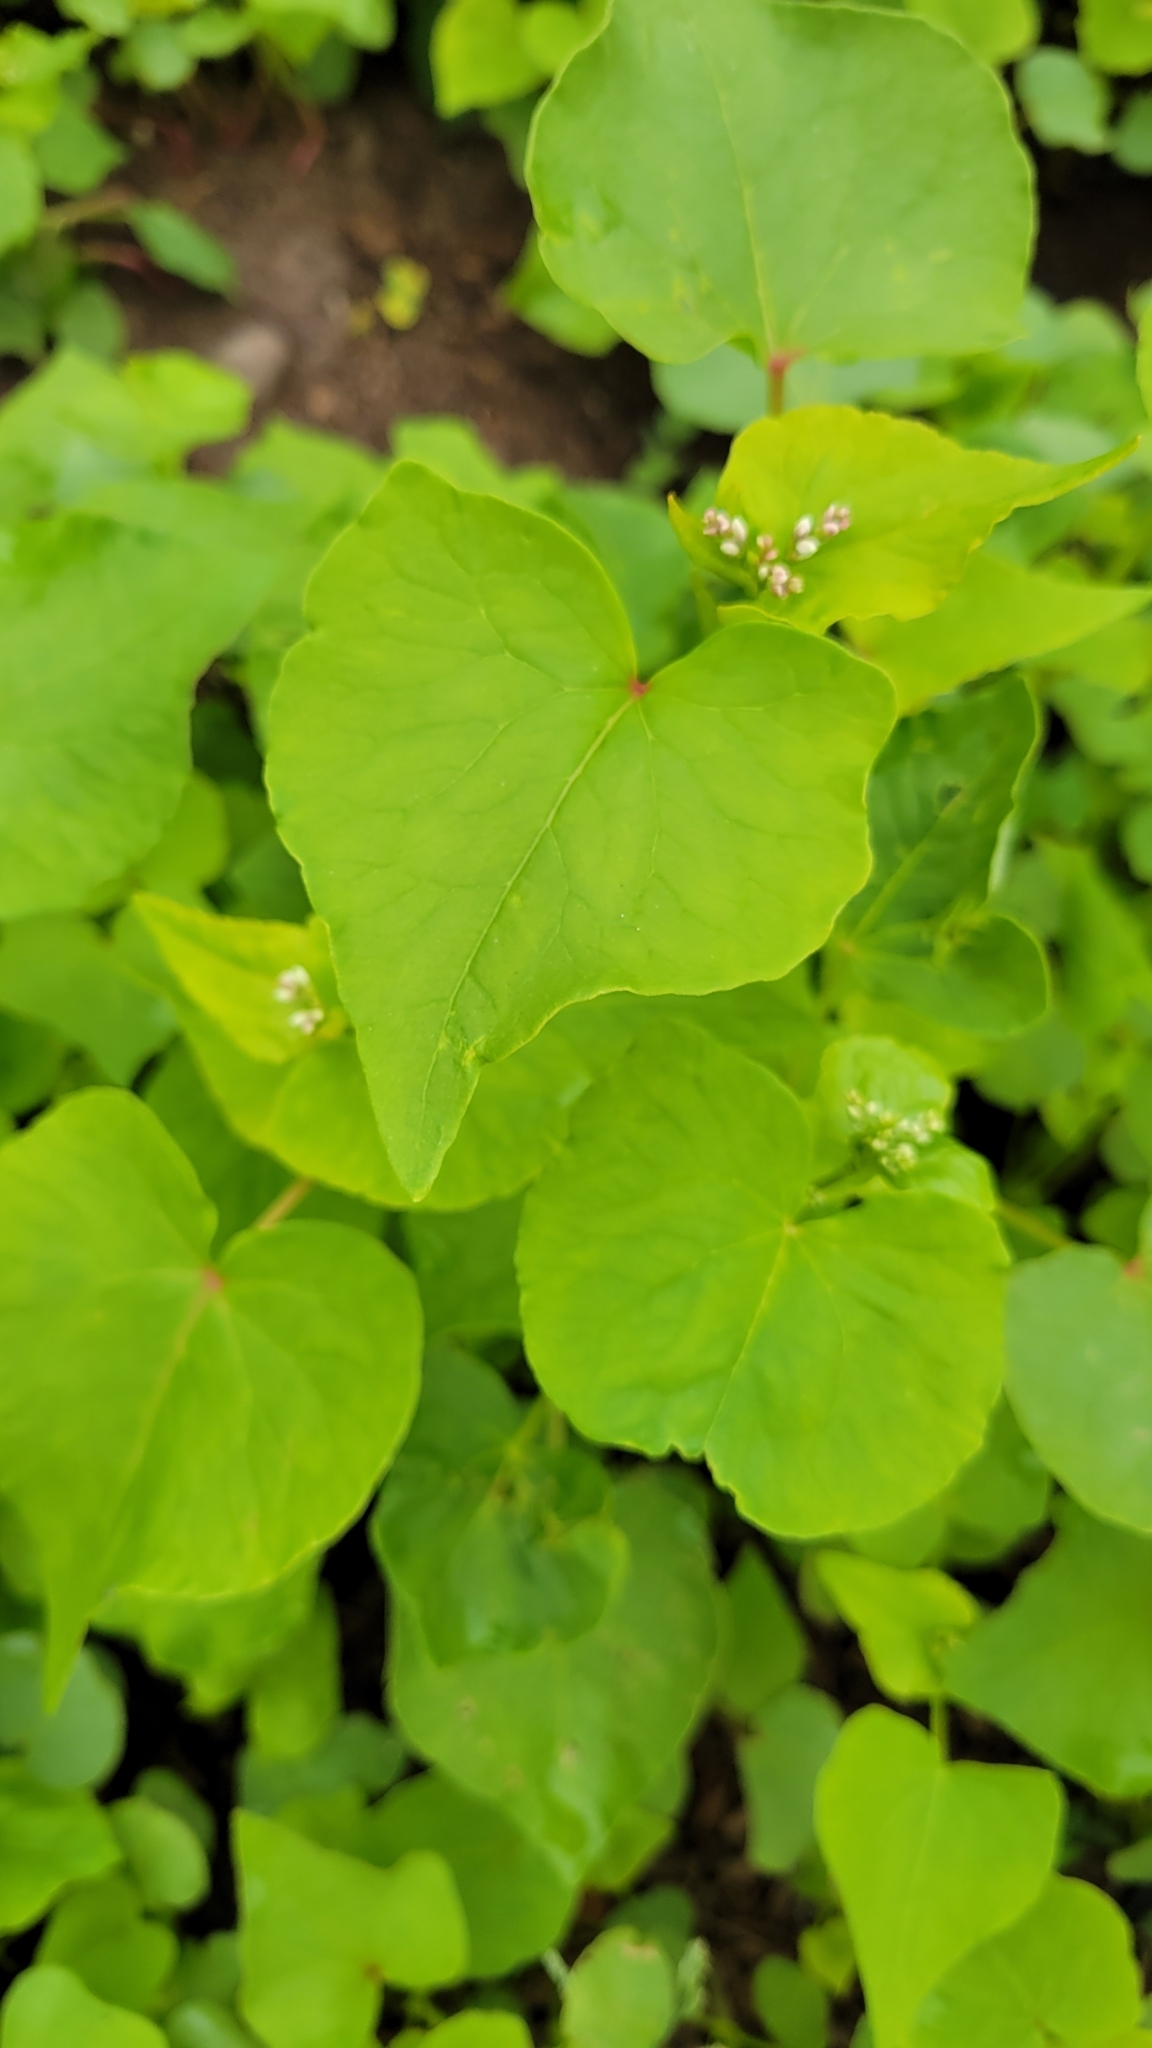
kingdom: Plantae
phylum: Tracheophyta
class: Magnoliopsida
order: Caryophyllales
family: Polygonaceae
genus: Fagopyrum
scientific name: Fagopyrum esculentum
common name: Buckwheat
